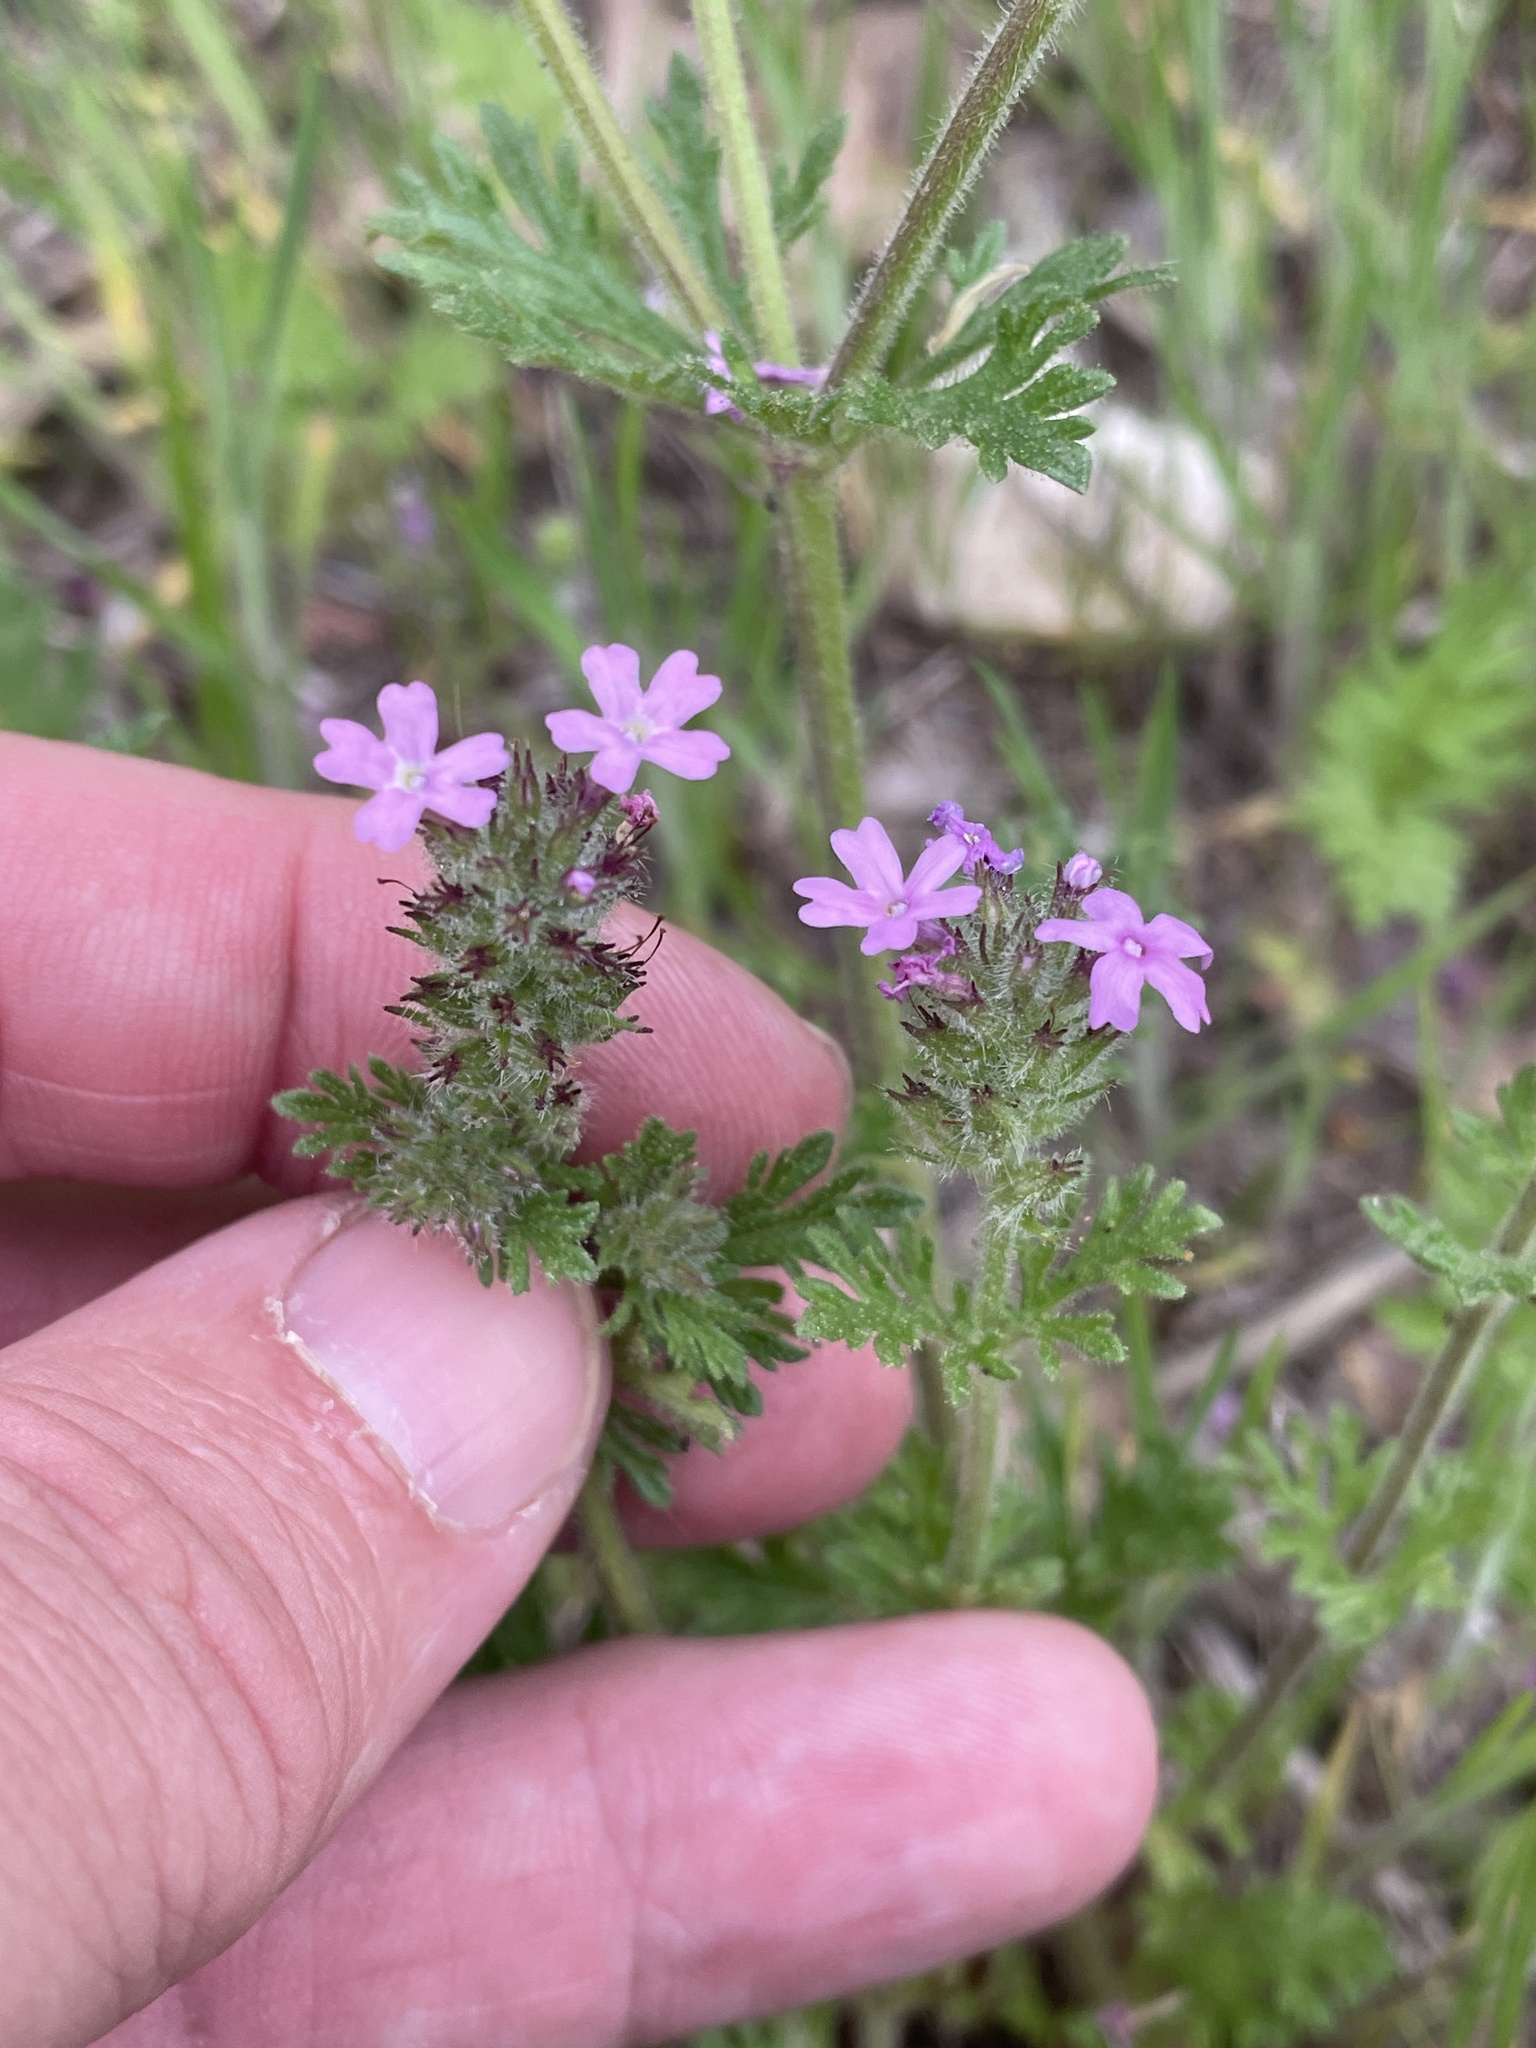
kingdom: Plantae
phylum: Tracheophyta
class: Magnoliopsida
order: Lamiales
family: Verbenaceae
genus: Verbena
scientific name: Verbena pumila
